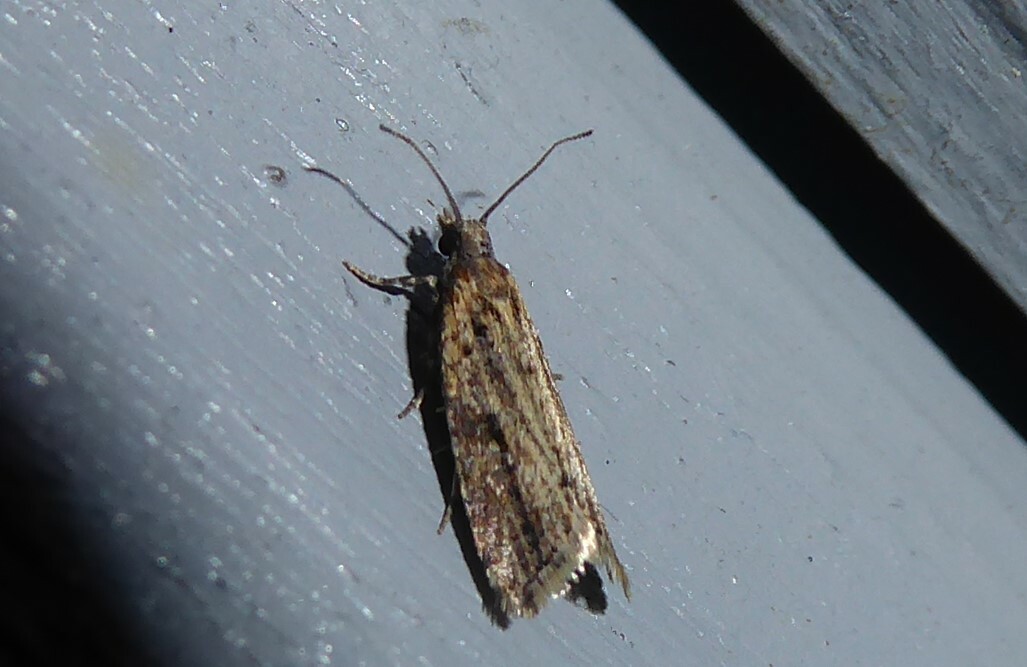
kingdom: Animalia
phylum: Arthropoda
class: Insecta
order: Lepidoptera
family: Tortricidae
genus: Capua
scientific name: Capua semiferana
